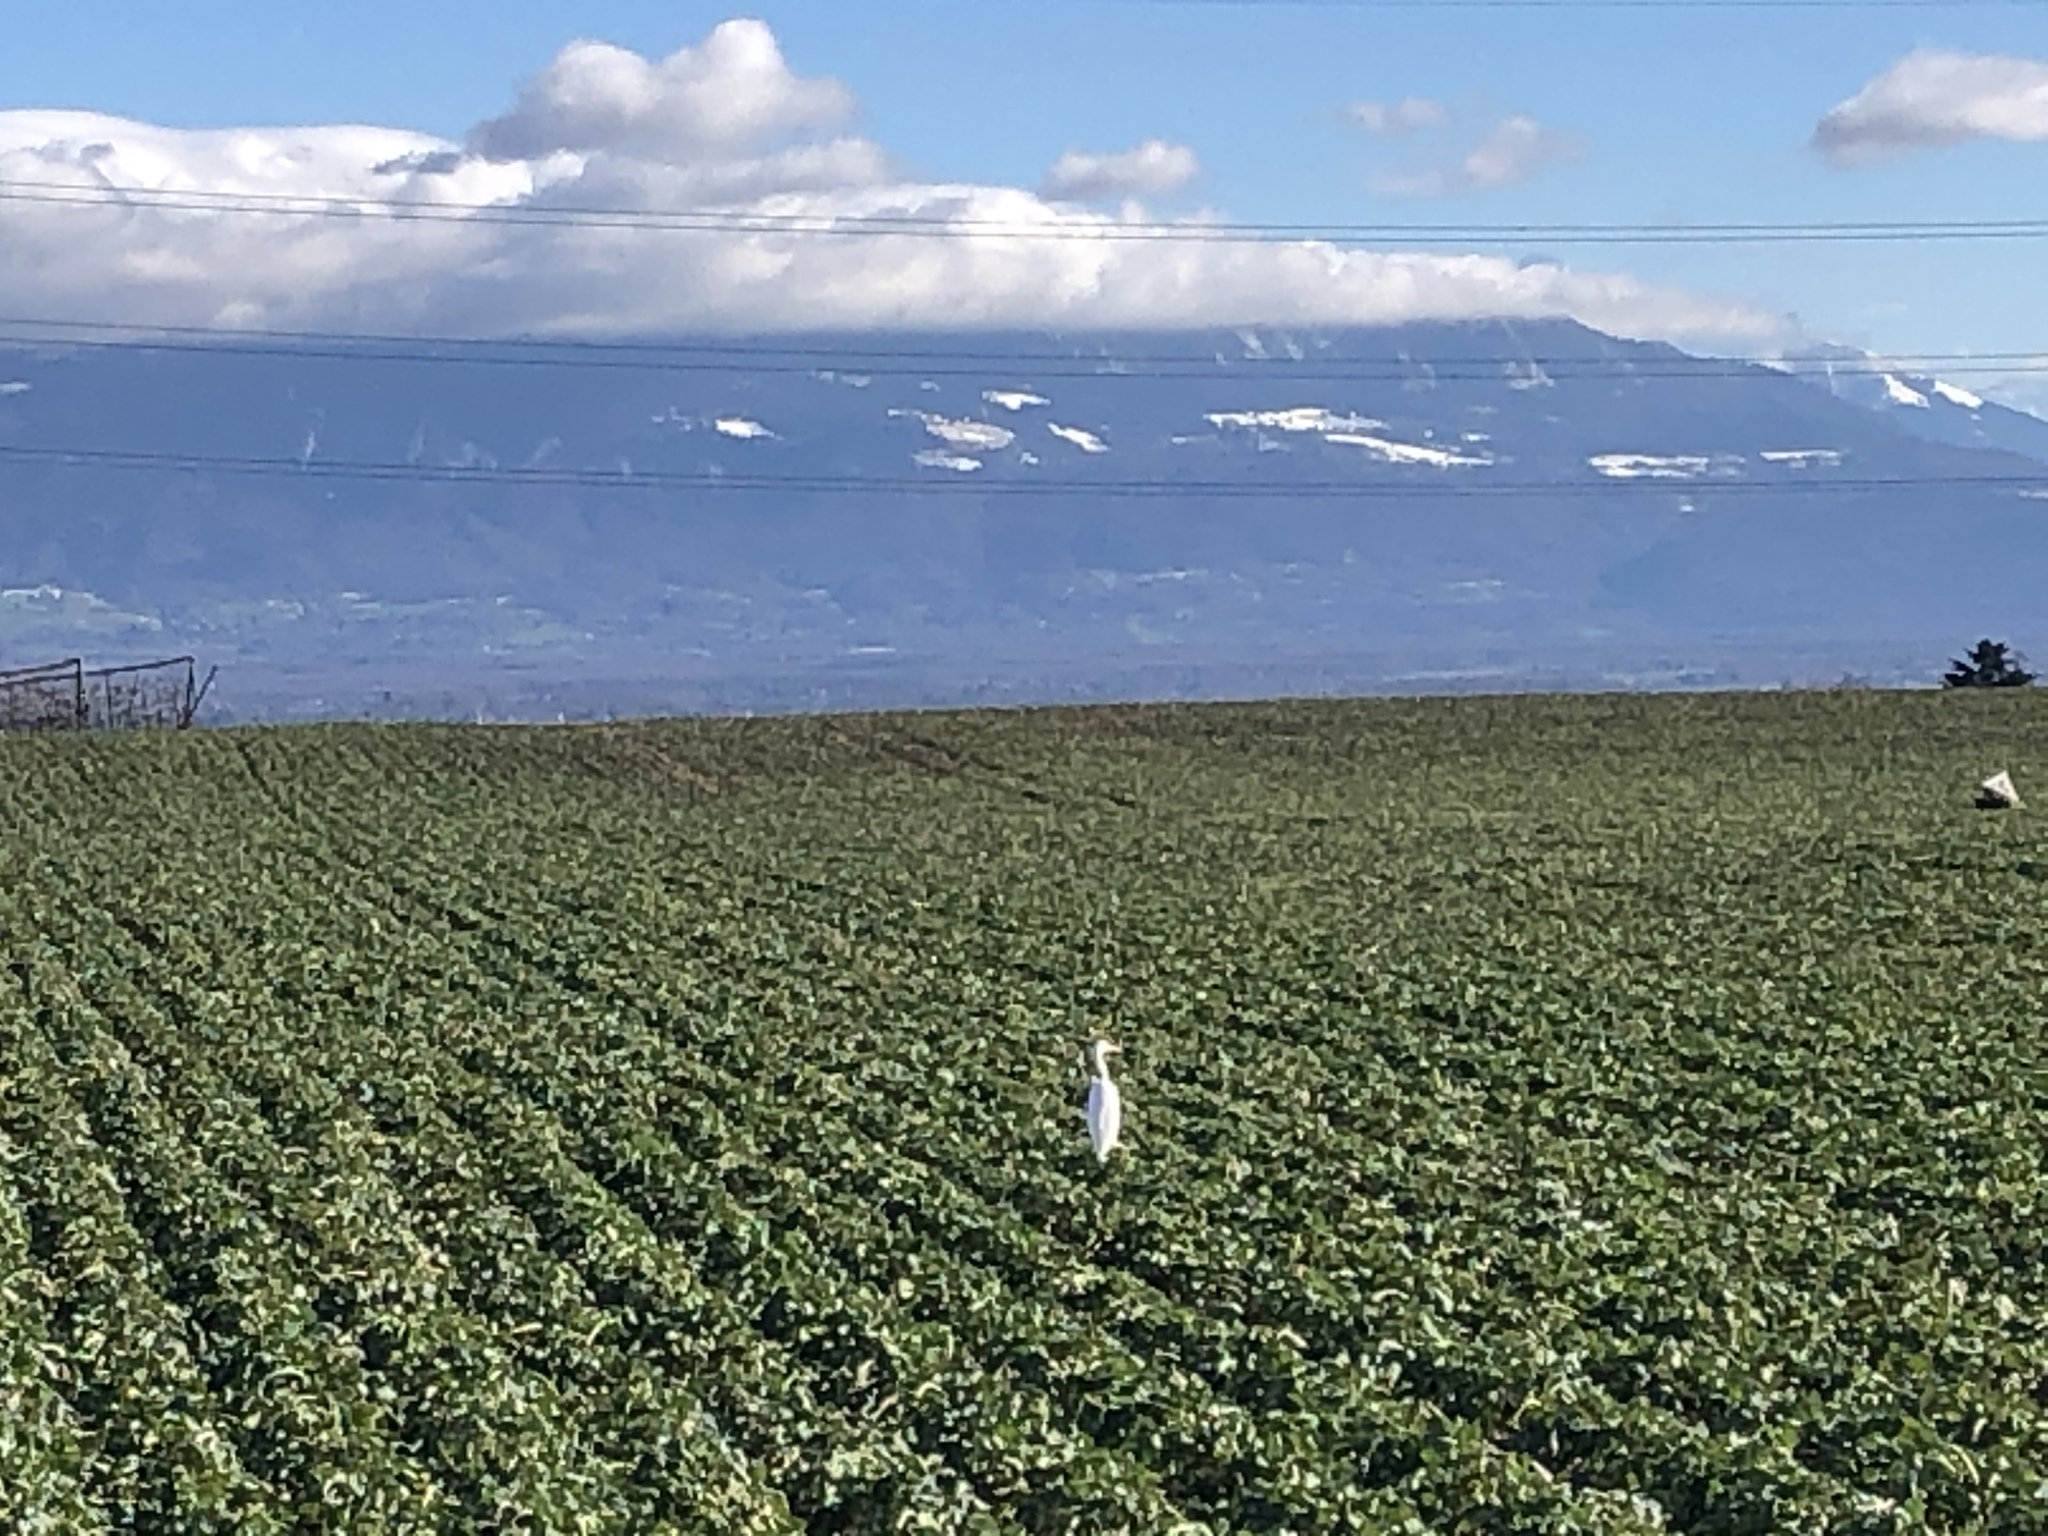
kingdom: Animalia
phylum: Chordata
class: Aves
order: Pelecaniformes
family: Ardeidae
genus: Ardea
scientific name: Ardea alba
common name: Great egret
